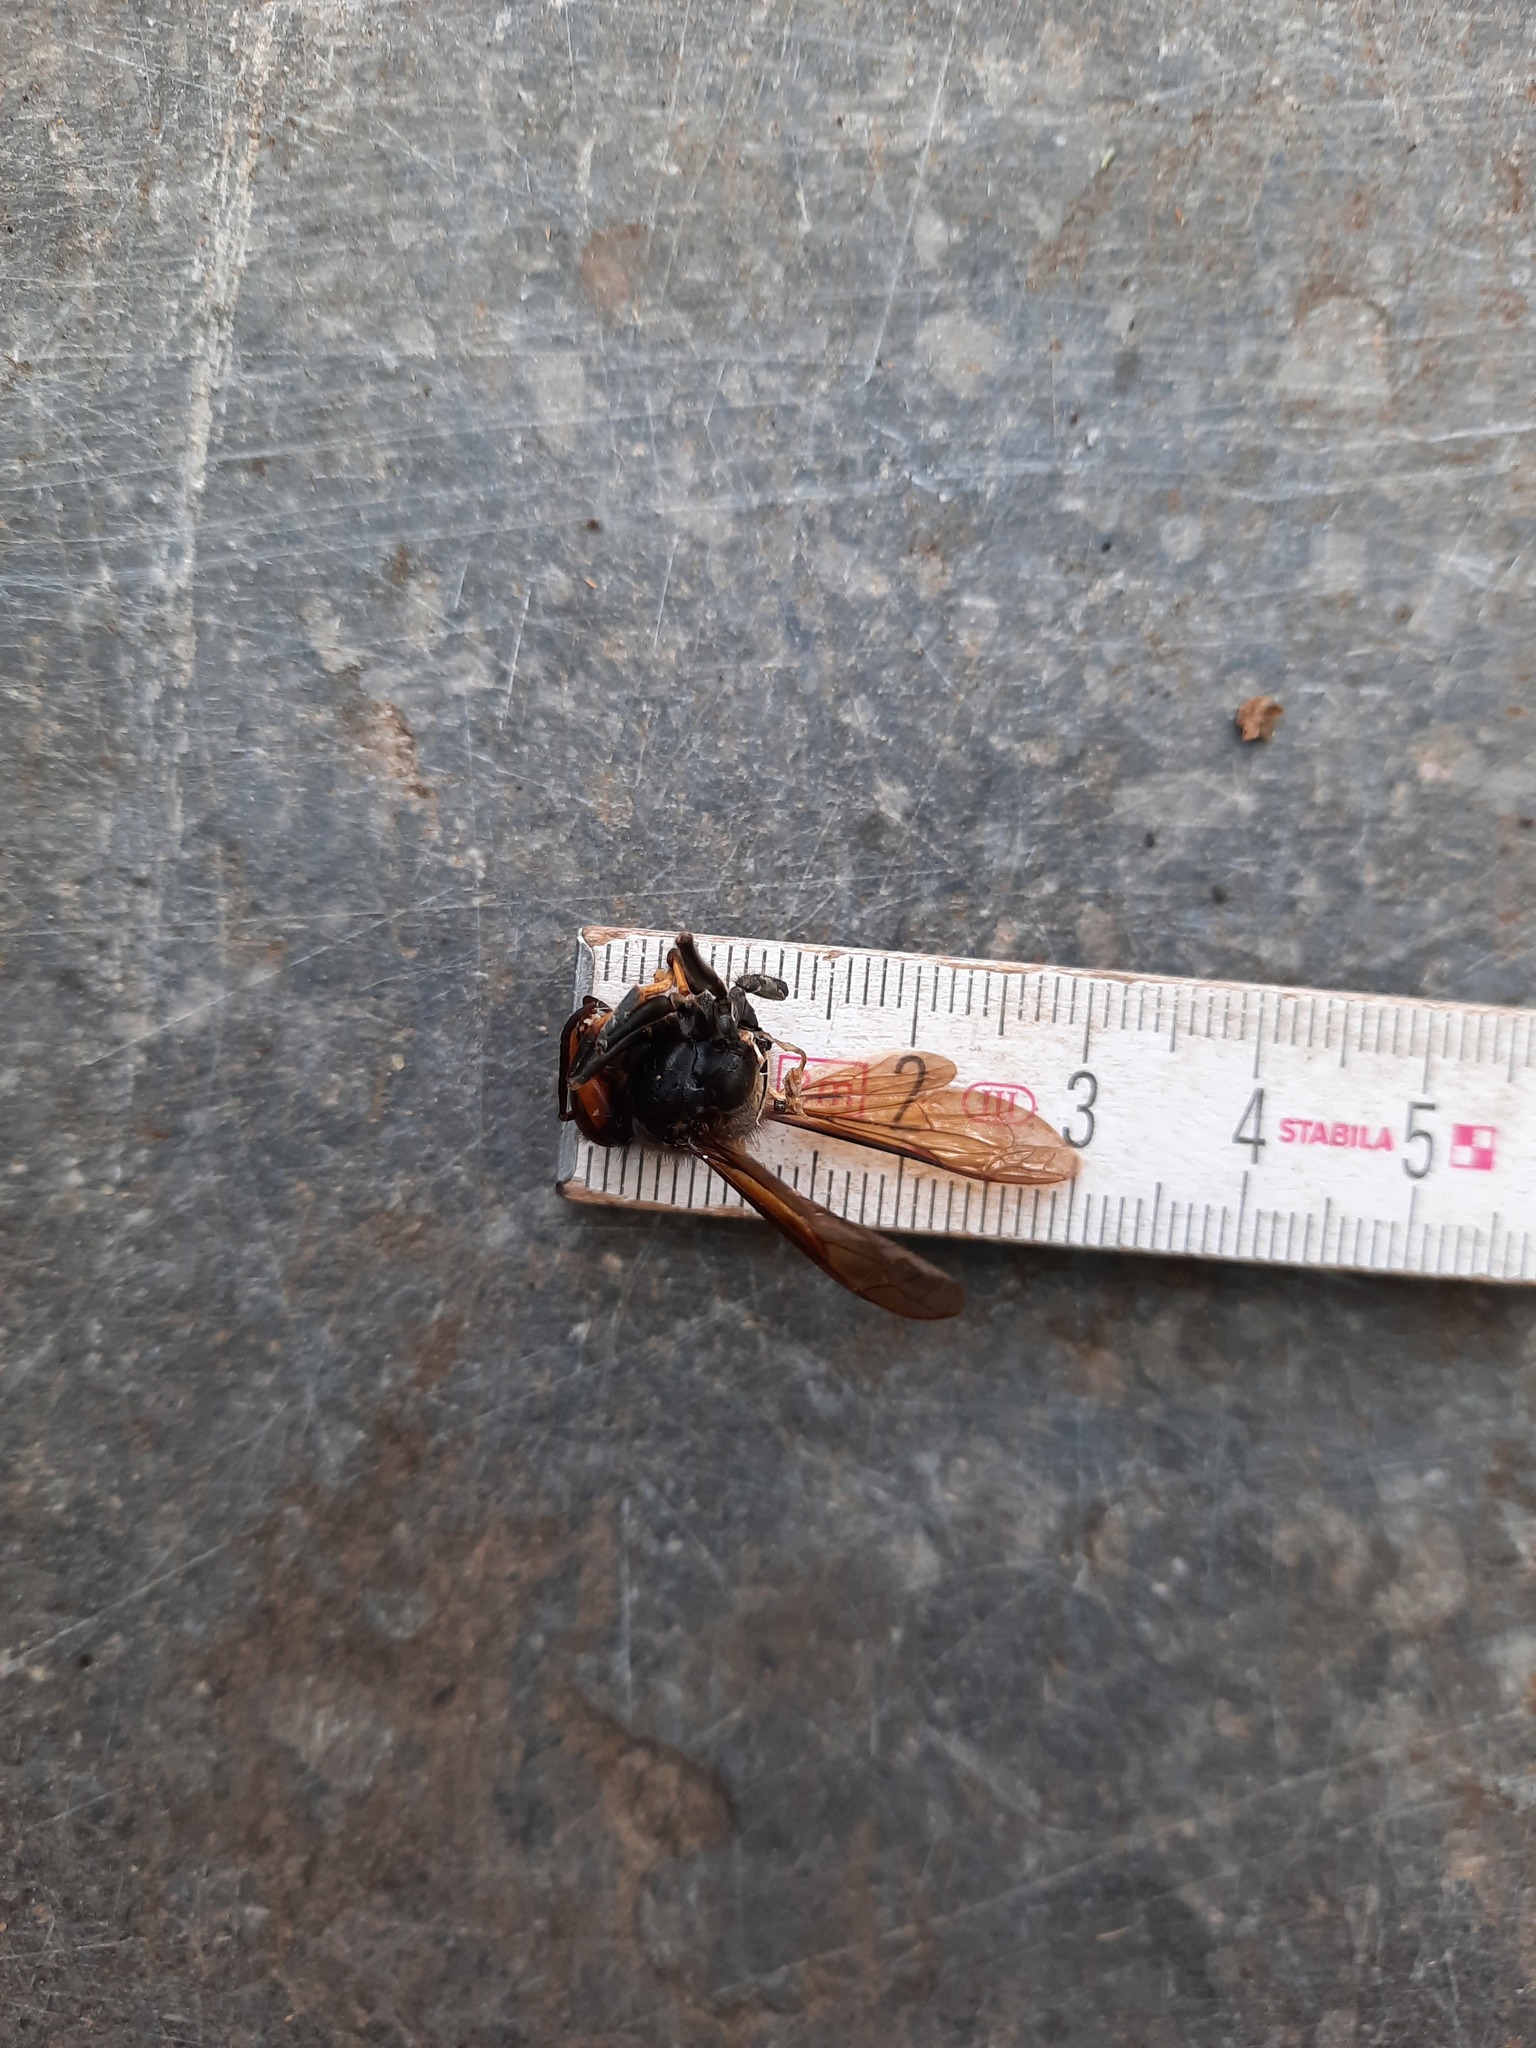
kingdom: Animalia
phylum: Arthropoda
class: Insecta
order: Hymenoptera
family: Vespidae
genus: Vespa
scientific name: Vespa velutina
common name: Asian hornet
